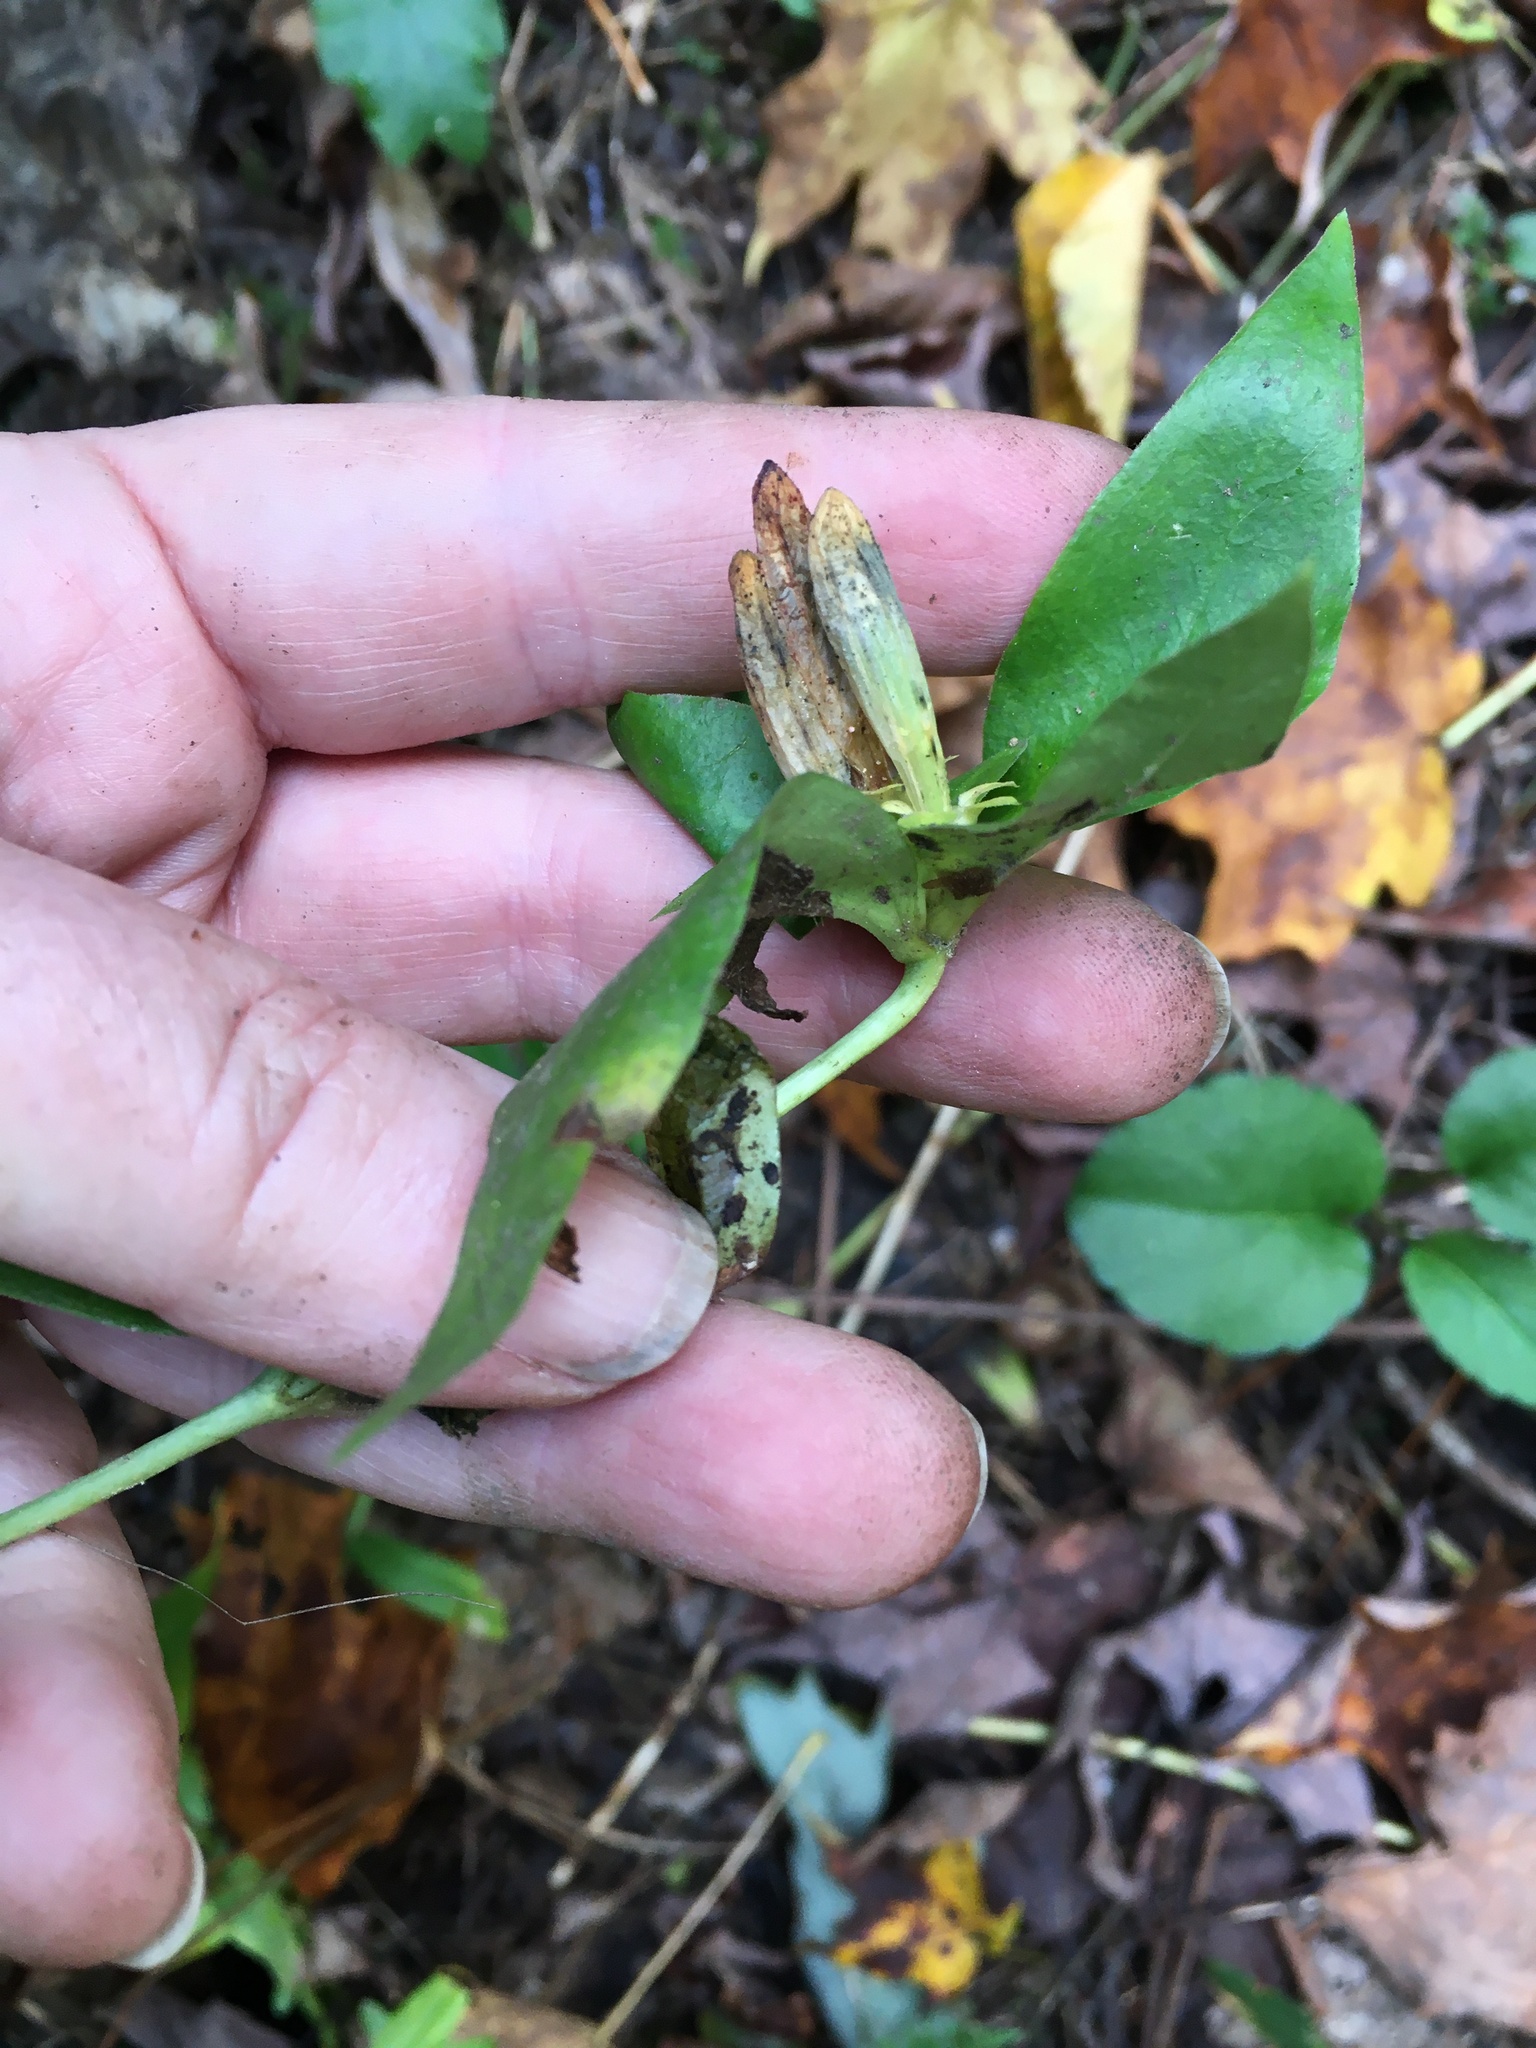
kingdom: Plantae
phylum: Tracheophyta
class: Magnoliopsida
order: Gentianales
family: Gentianaceae
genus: Gentiana
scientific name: Gentiana clausa
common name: Blind gentian
